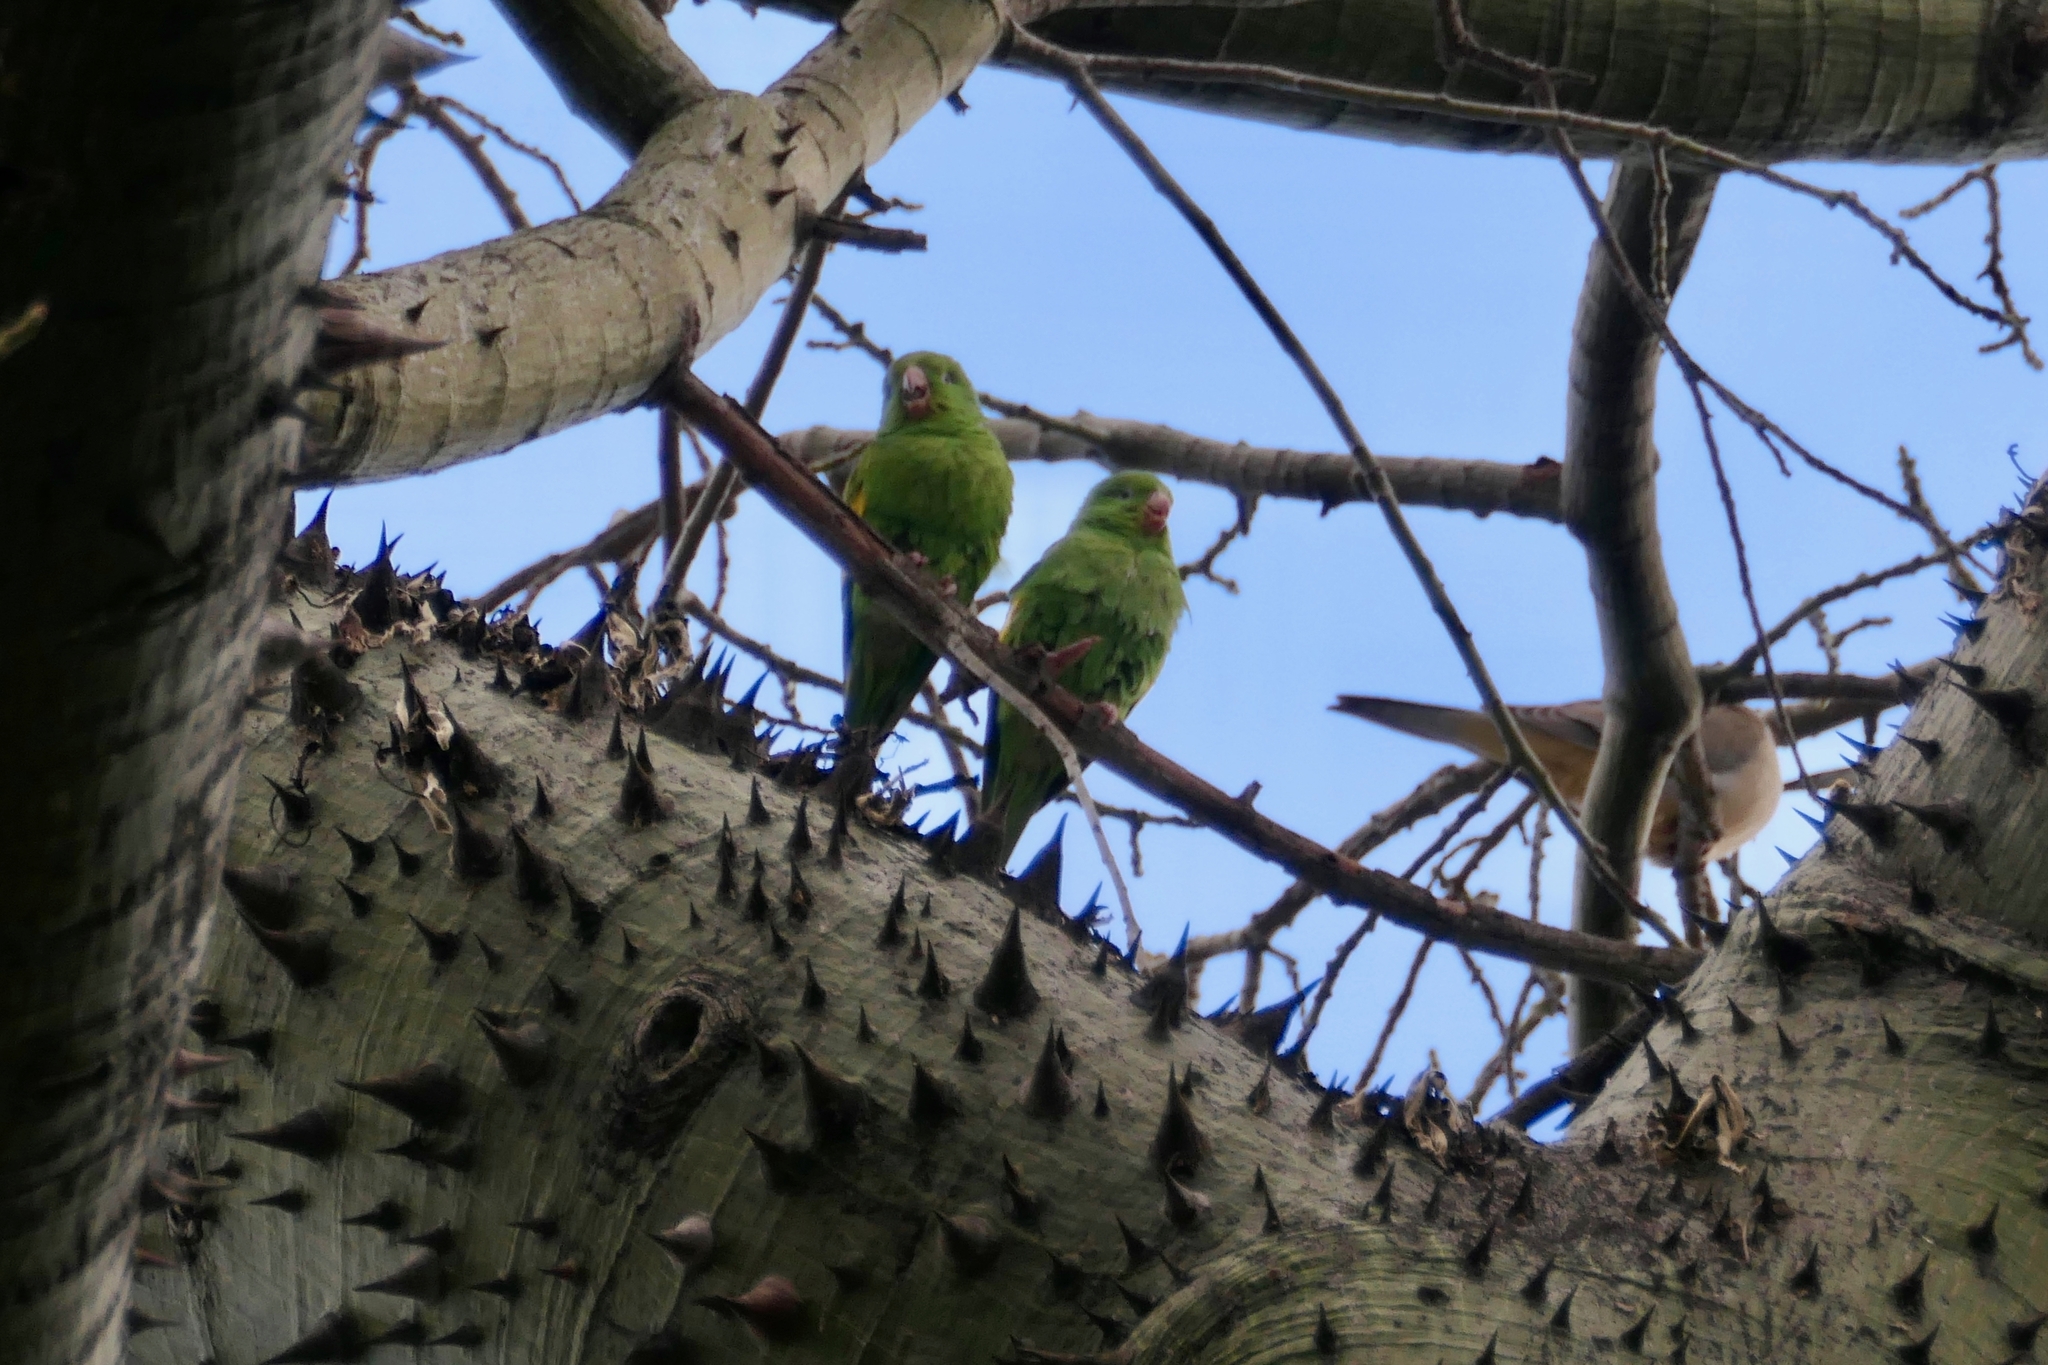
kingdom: Animalia
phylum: Chordata
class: Aves
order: Psittaciformes
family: Psittacidae
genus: Brotogeris
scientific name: Brotogeris chiriri
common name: Yellow-chevroned parakeet
